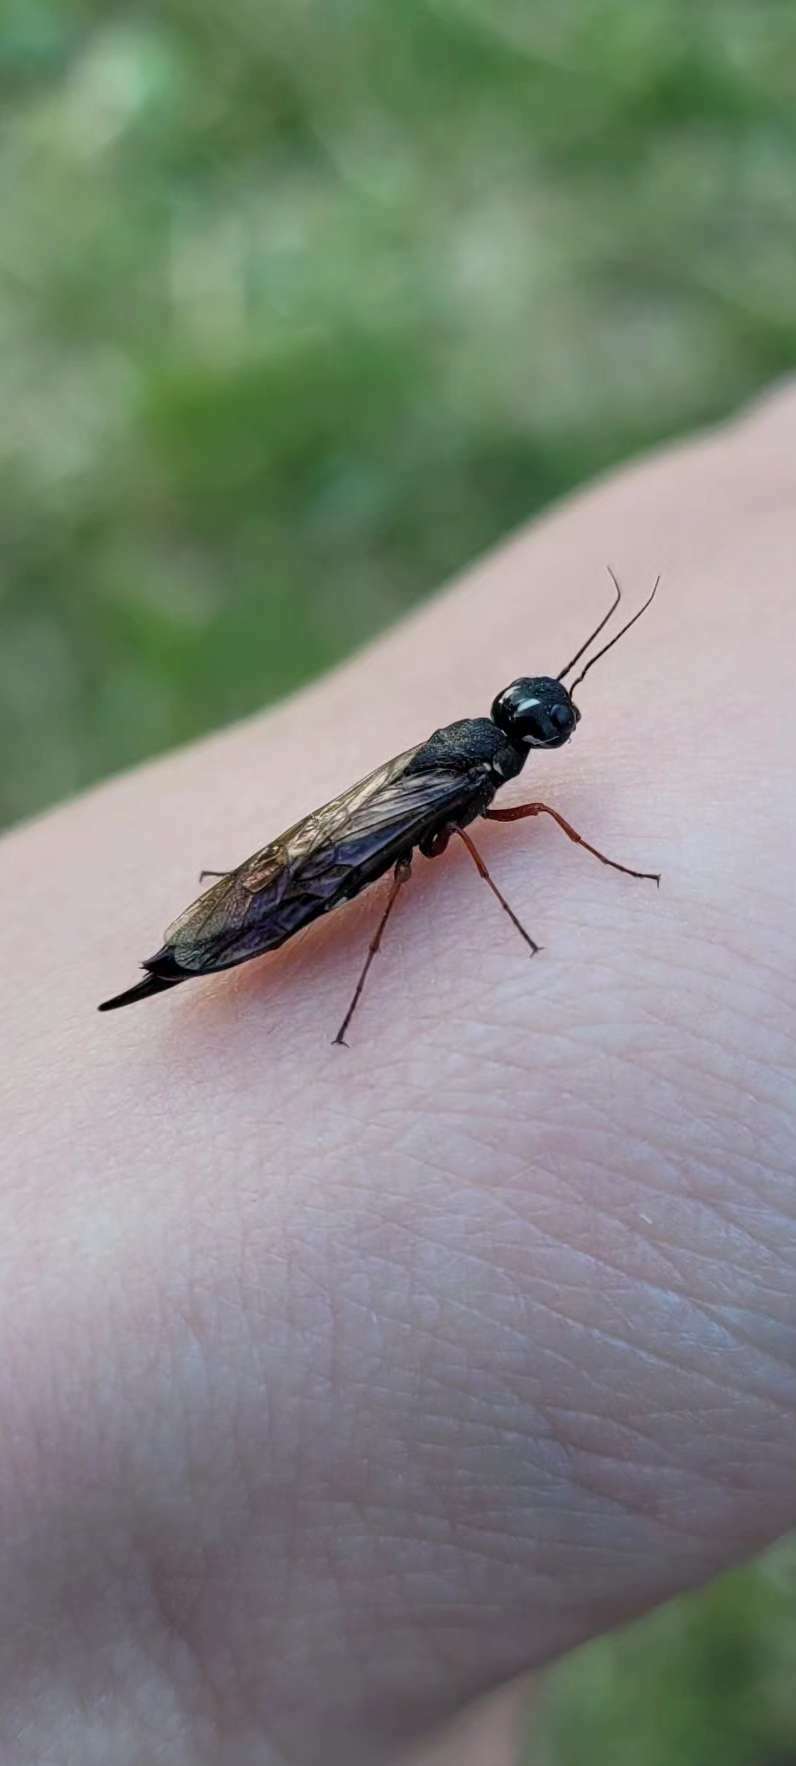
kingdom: Animalia
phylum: Arthropoda
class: Insecta
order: Hymenoptera
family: Xiphydriidae
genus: Xiphydria
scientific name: Xiphydria camelus
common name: Alder wood-wasp
